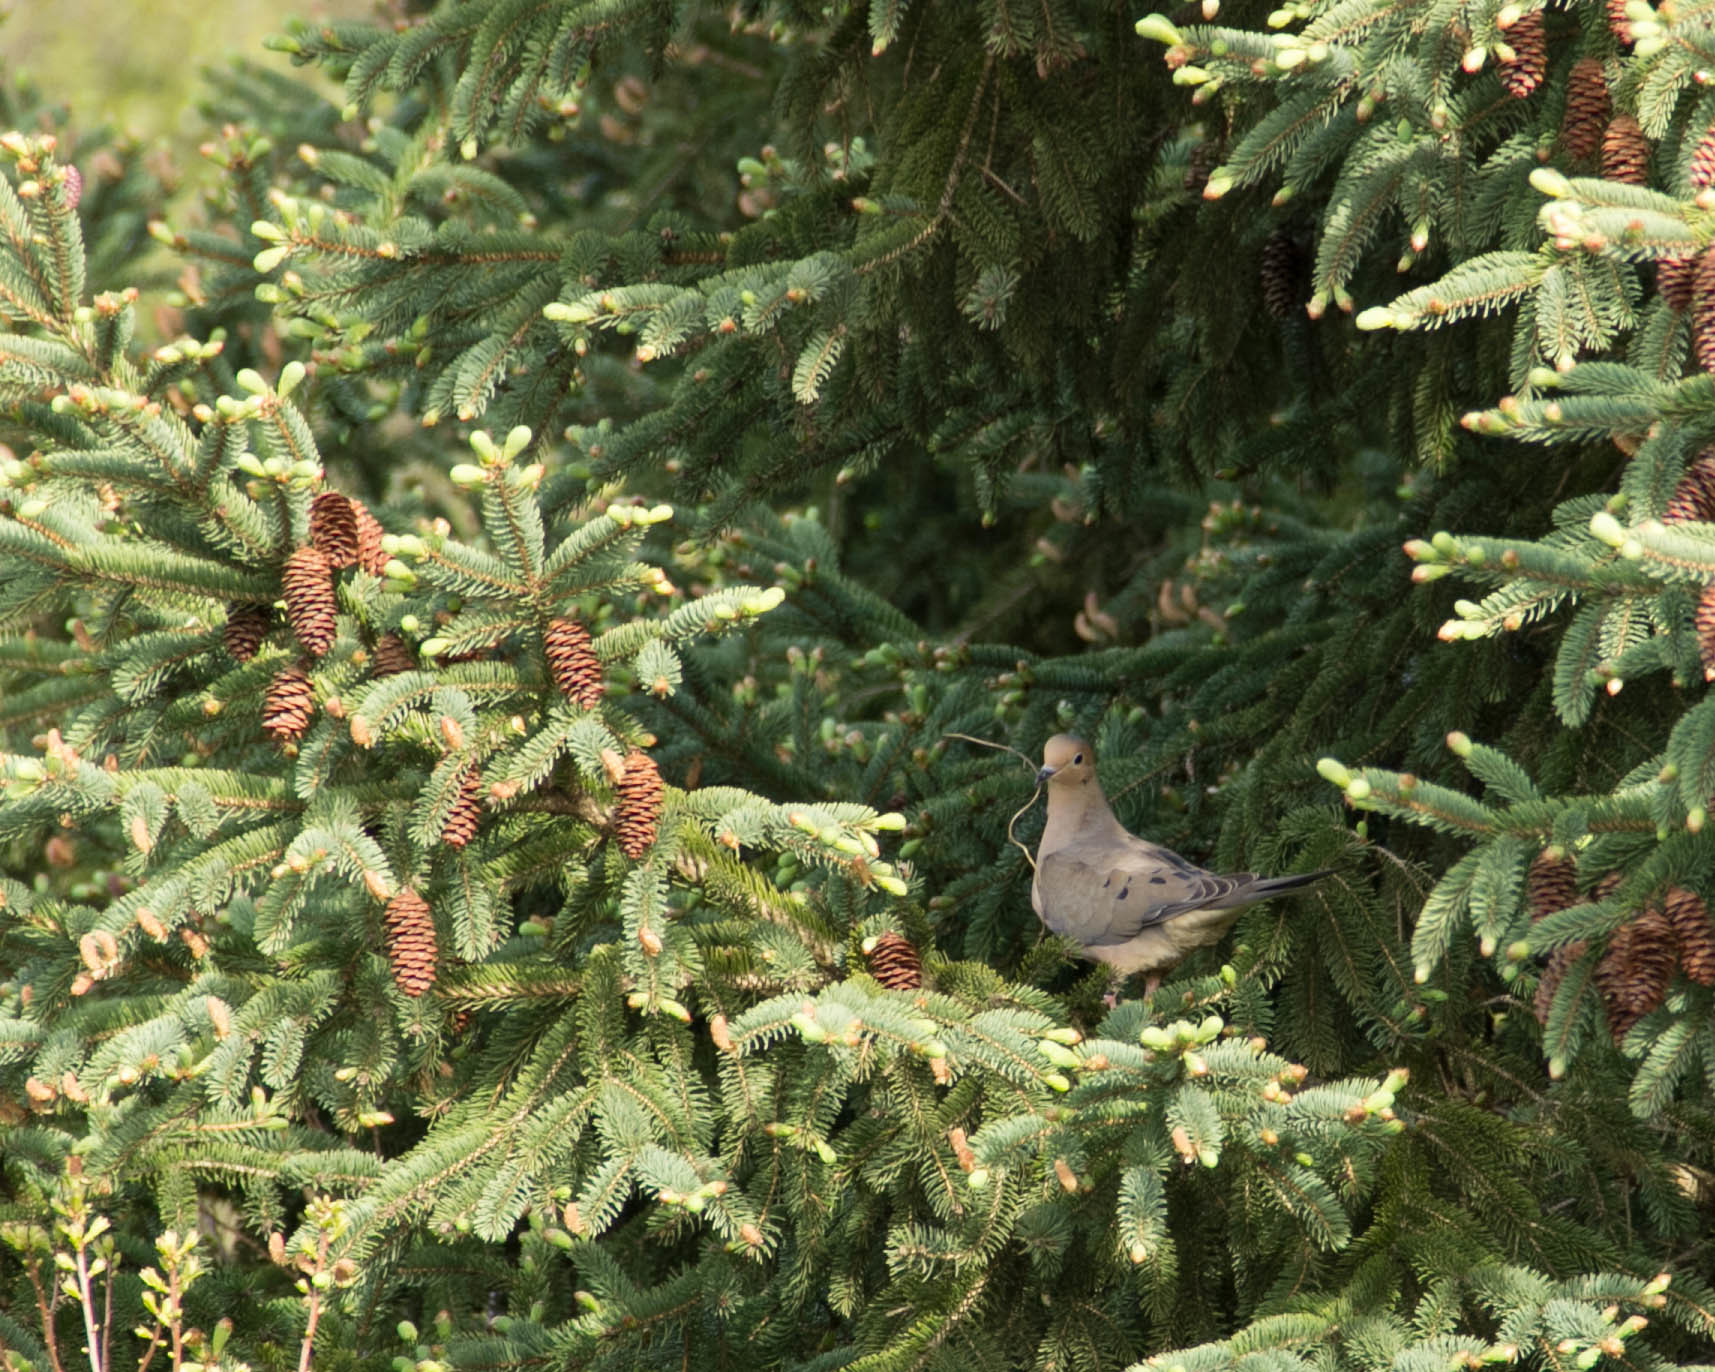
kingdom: Animalia
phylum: Chordata
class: Aves
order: Columbiformes
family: Columbidae
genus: Zenaida
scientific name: Zenaida macroura
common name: Mourning dove
